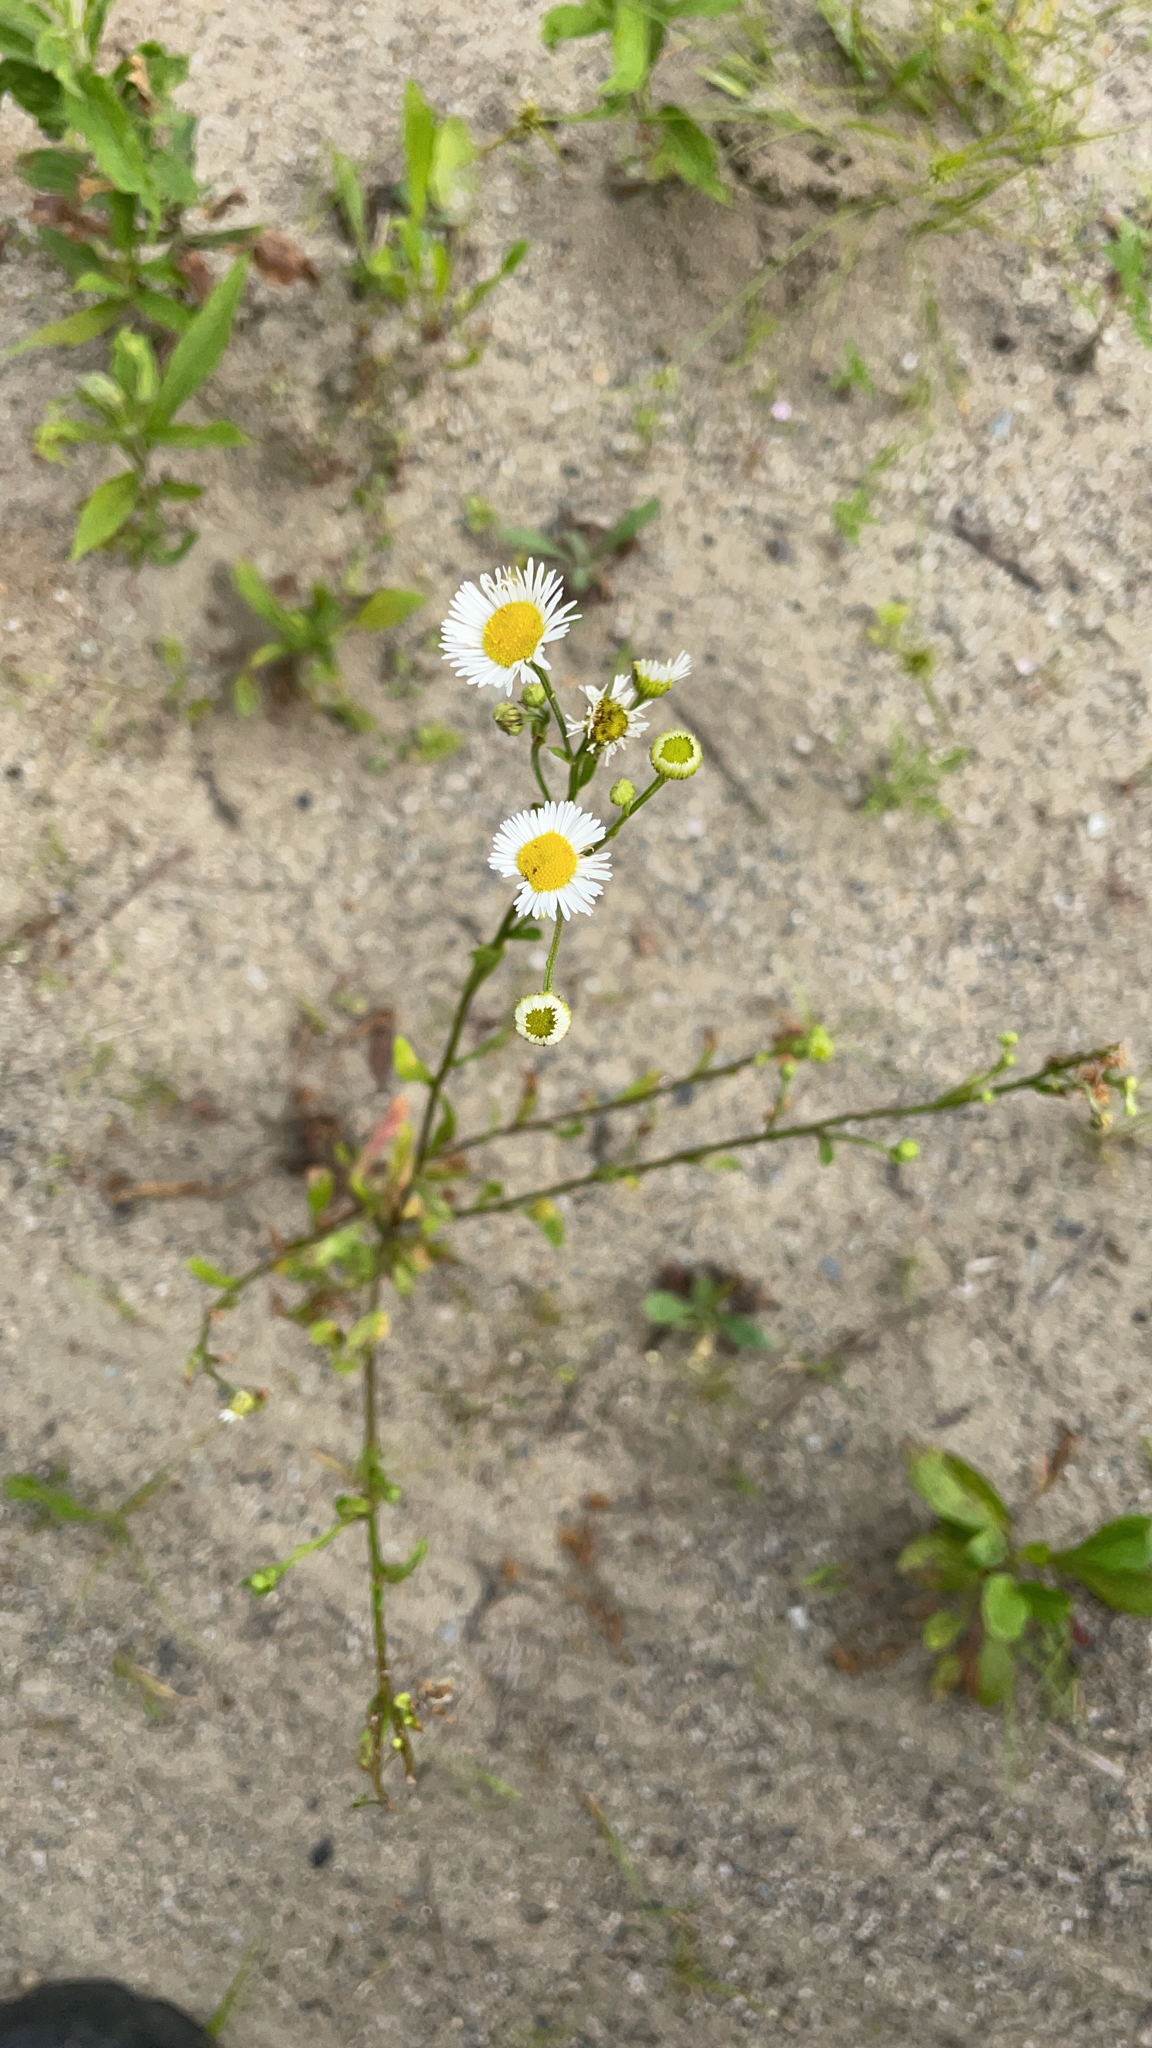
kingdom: Plantae
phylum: Tracheophyta
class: Magnoliopsida
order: Asterales
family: Asteraceae
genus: Erigeron
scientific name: Erigeron strigosus
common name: Common eastern fleabane
